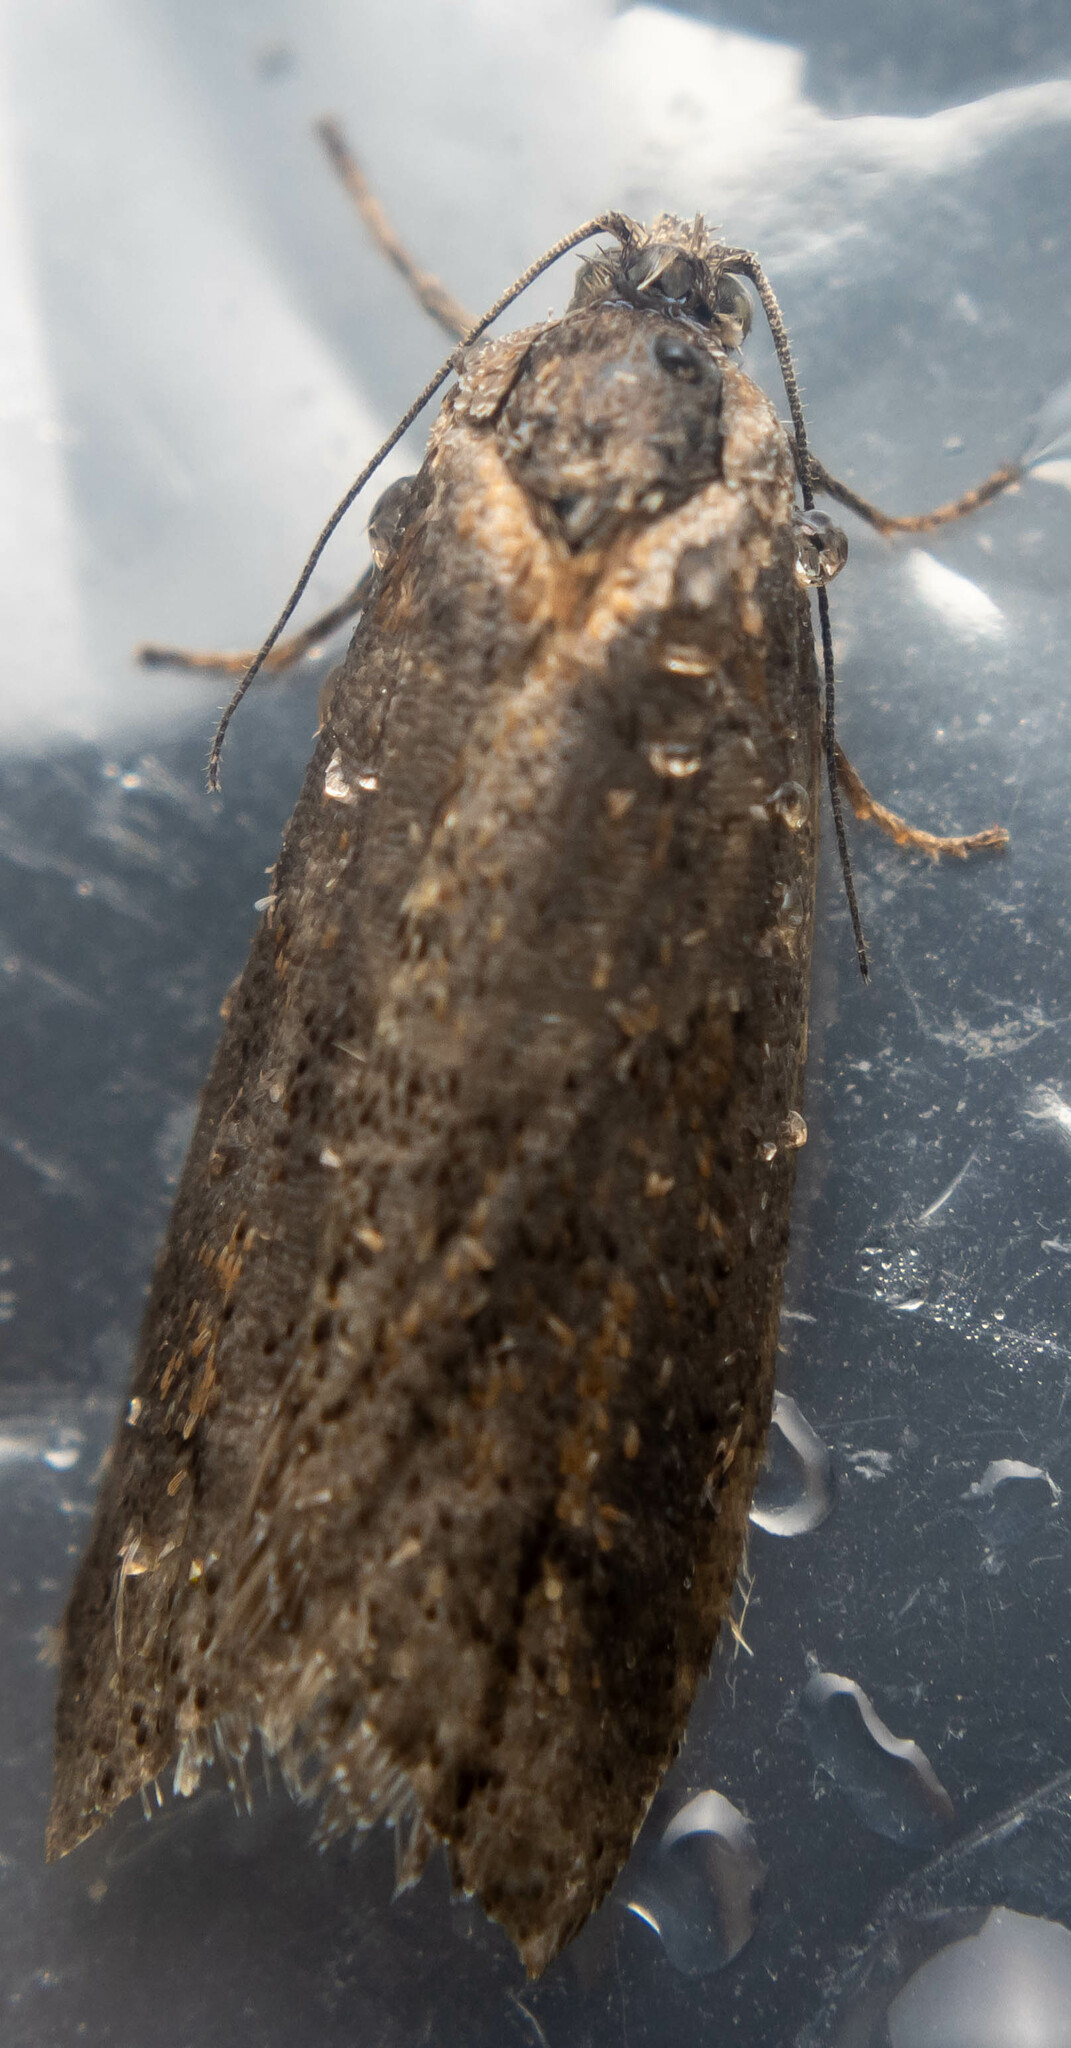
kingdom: Animalia
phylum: Arthropoda
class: Insecta
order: Lepidoptera
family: Tortricidae
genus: Tortricodes
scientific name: Tortricodes alternella
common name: Winter shade
